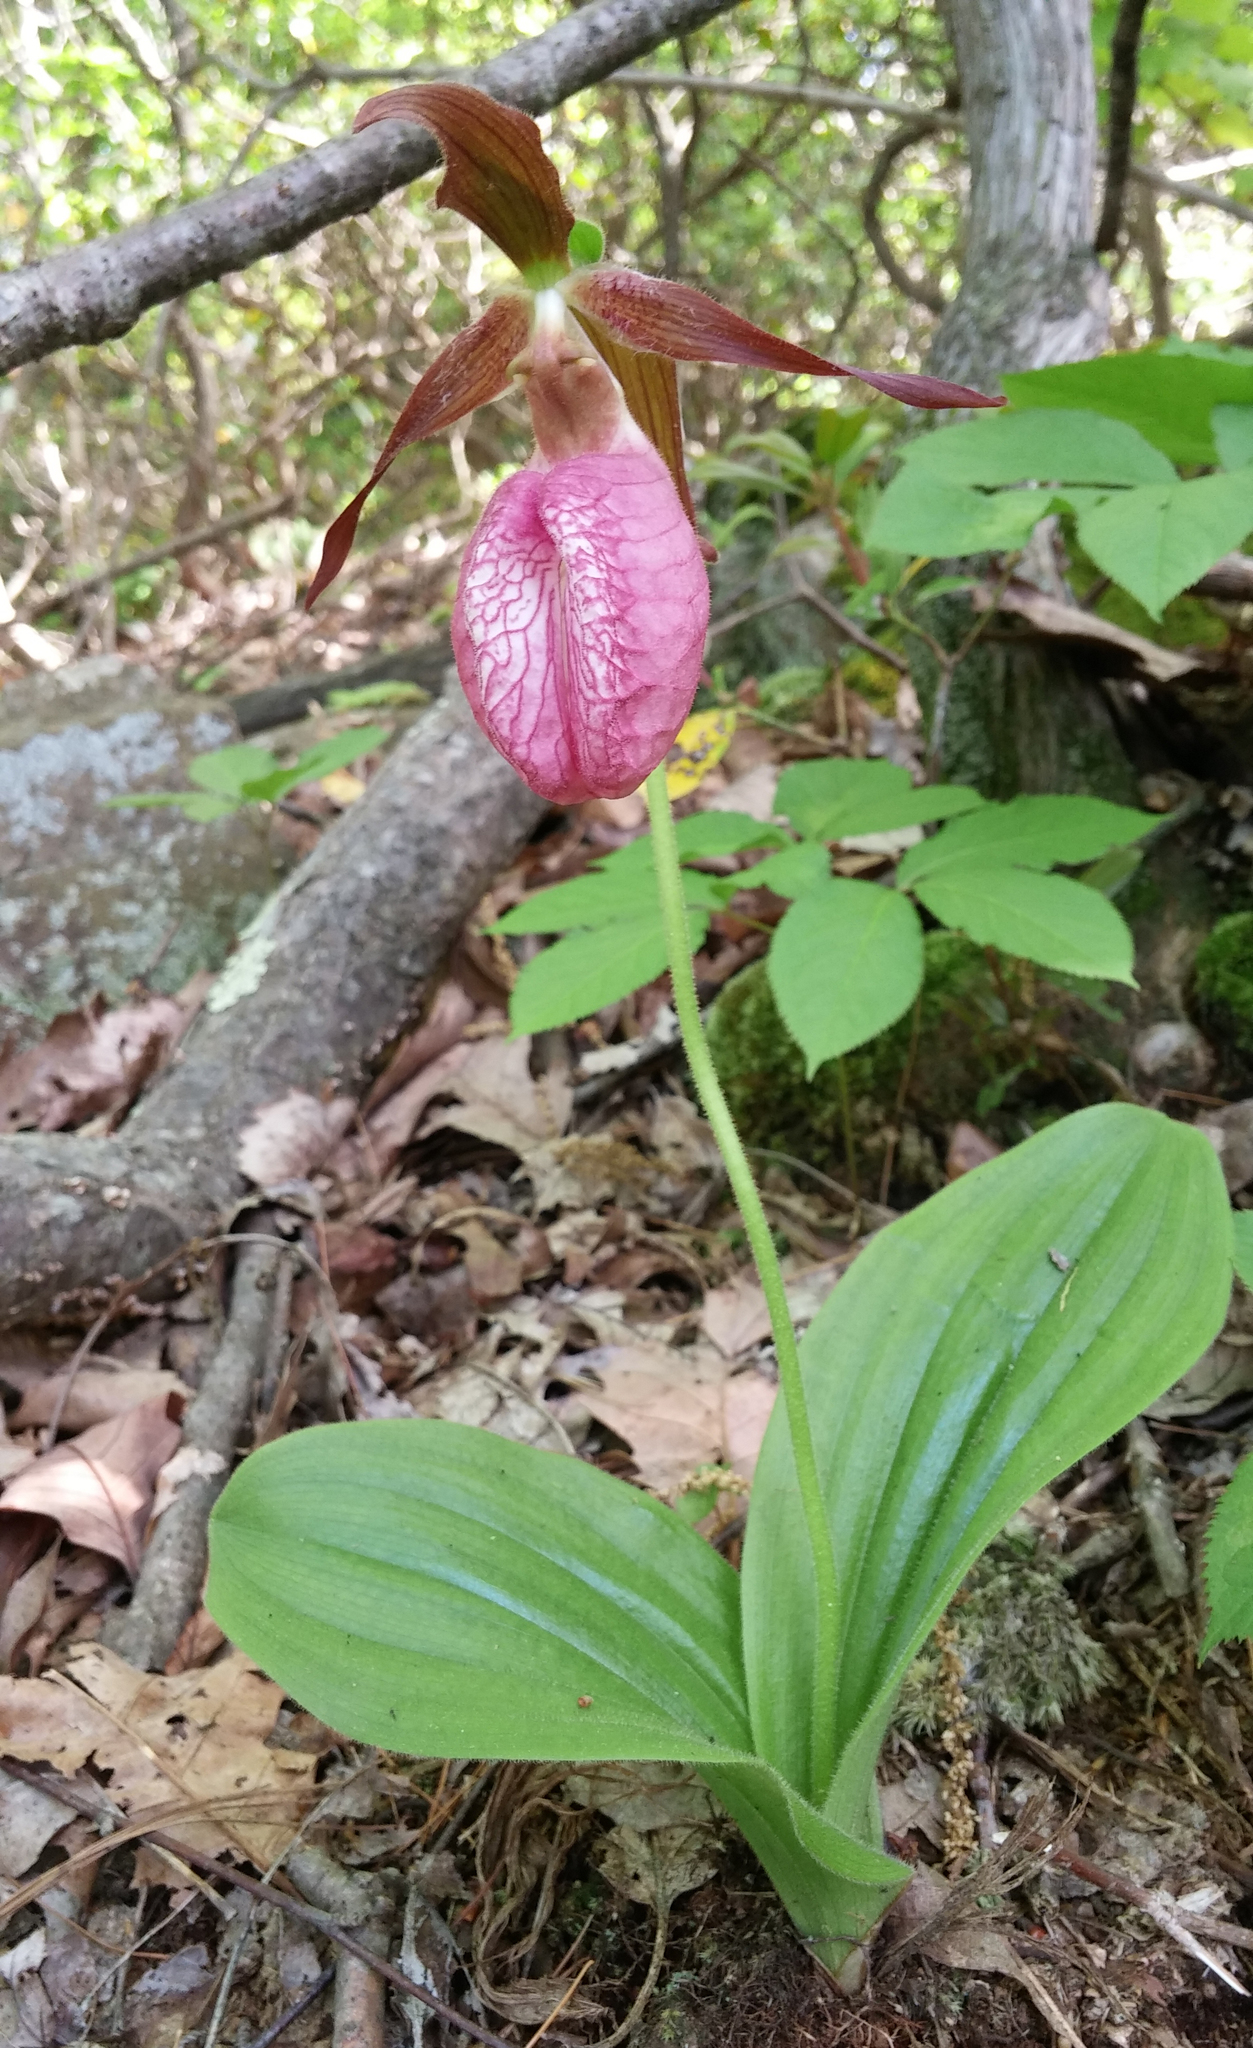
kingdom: Plantae
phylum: Tracheophyta
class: Liliopsida
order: Asparagales
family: Orchidaceae
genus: Cypripedium
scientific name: Cypripedium acaule
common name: Pink lady's-slipper
